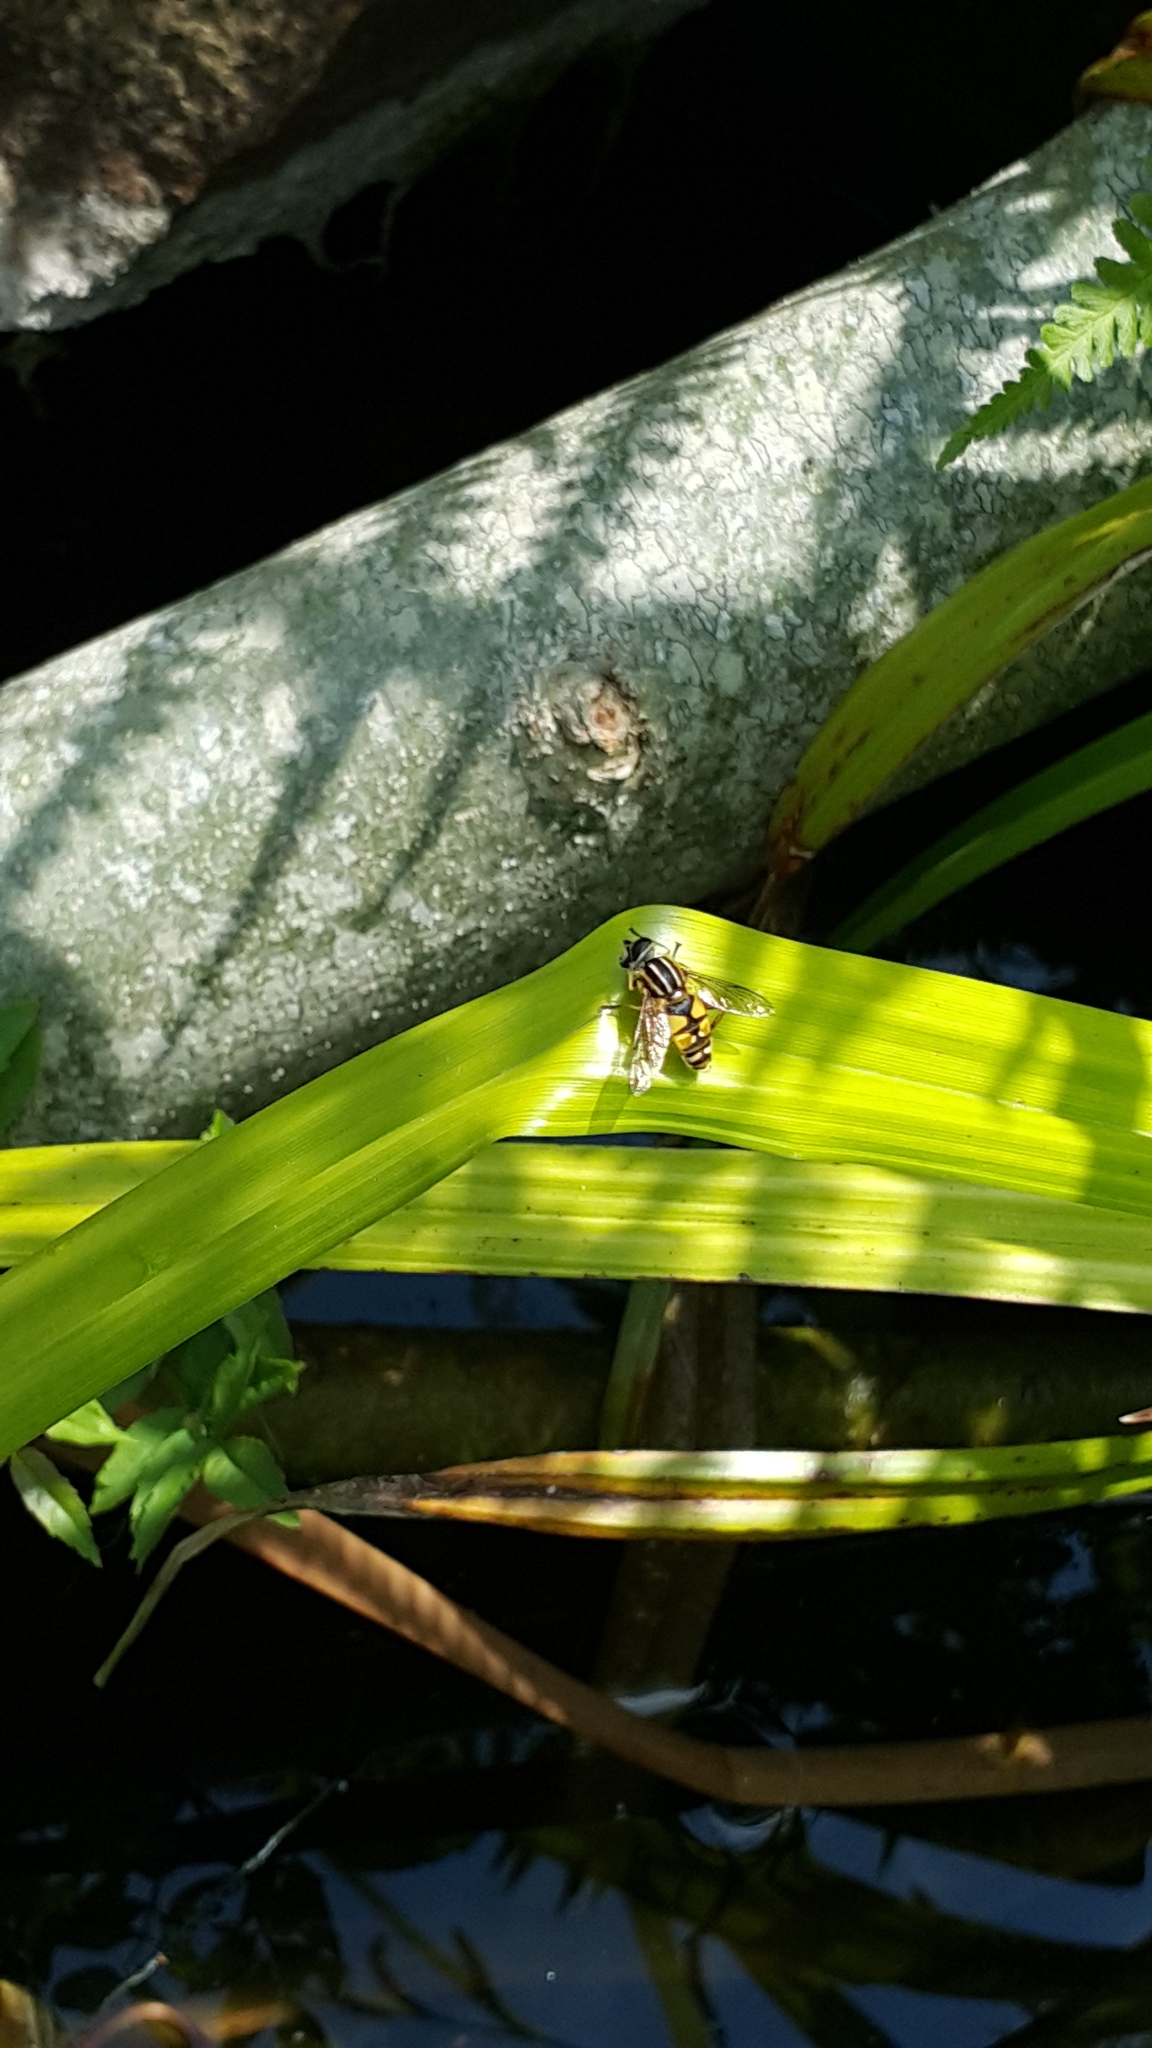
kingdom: Animalia
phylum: Arthropoda
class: Insecta
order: Diptera
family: Syrphidae
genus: Helophilus
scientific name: Helophilus pendulus
